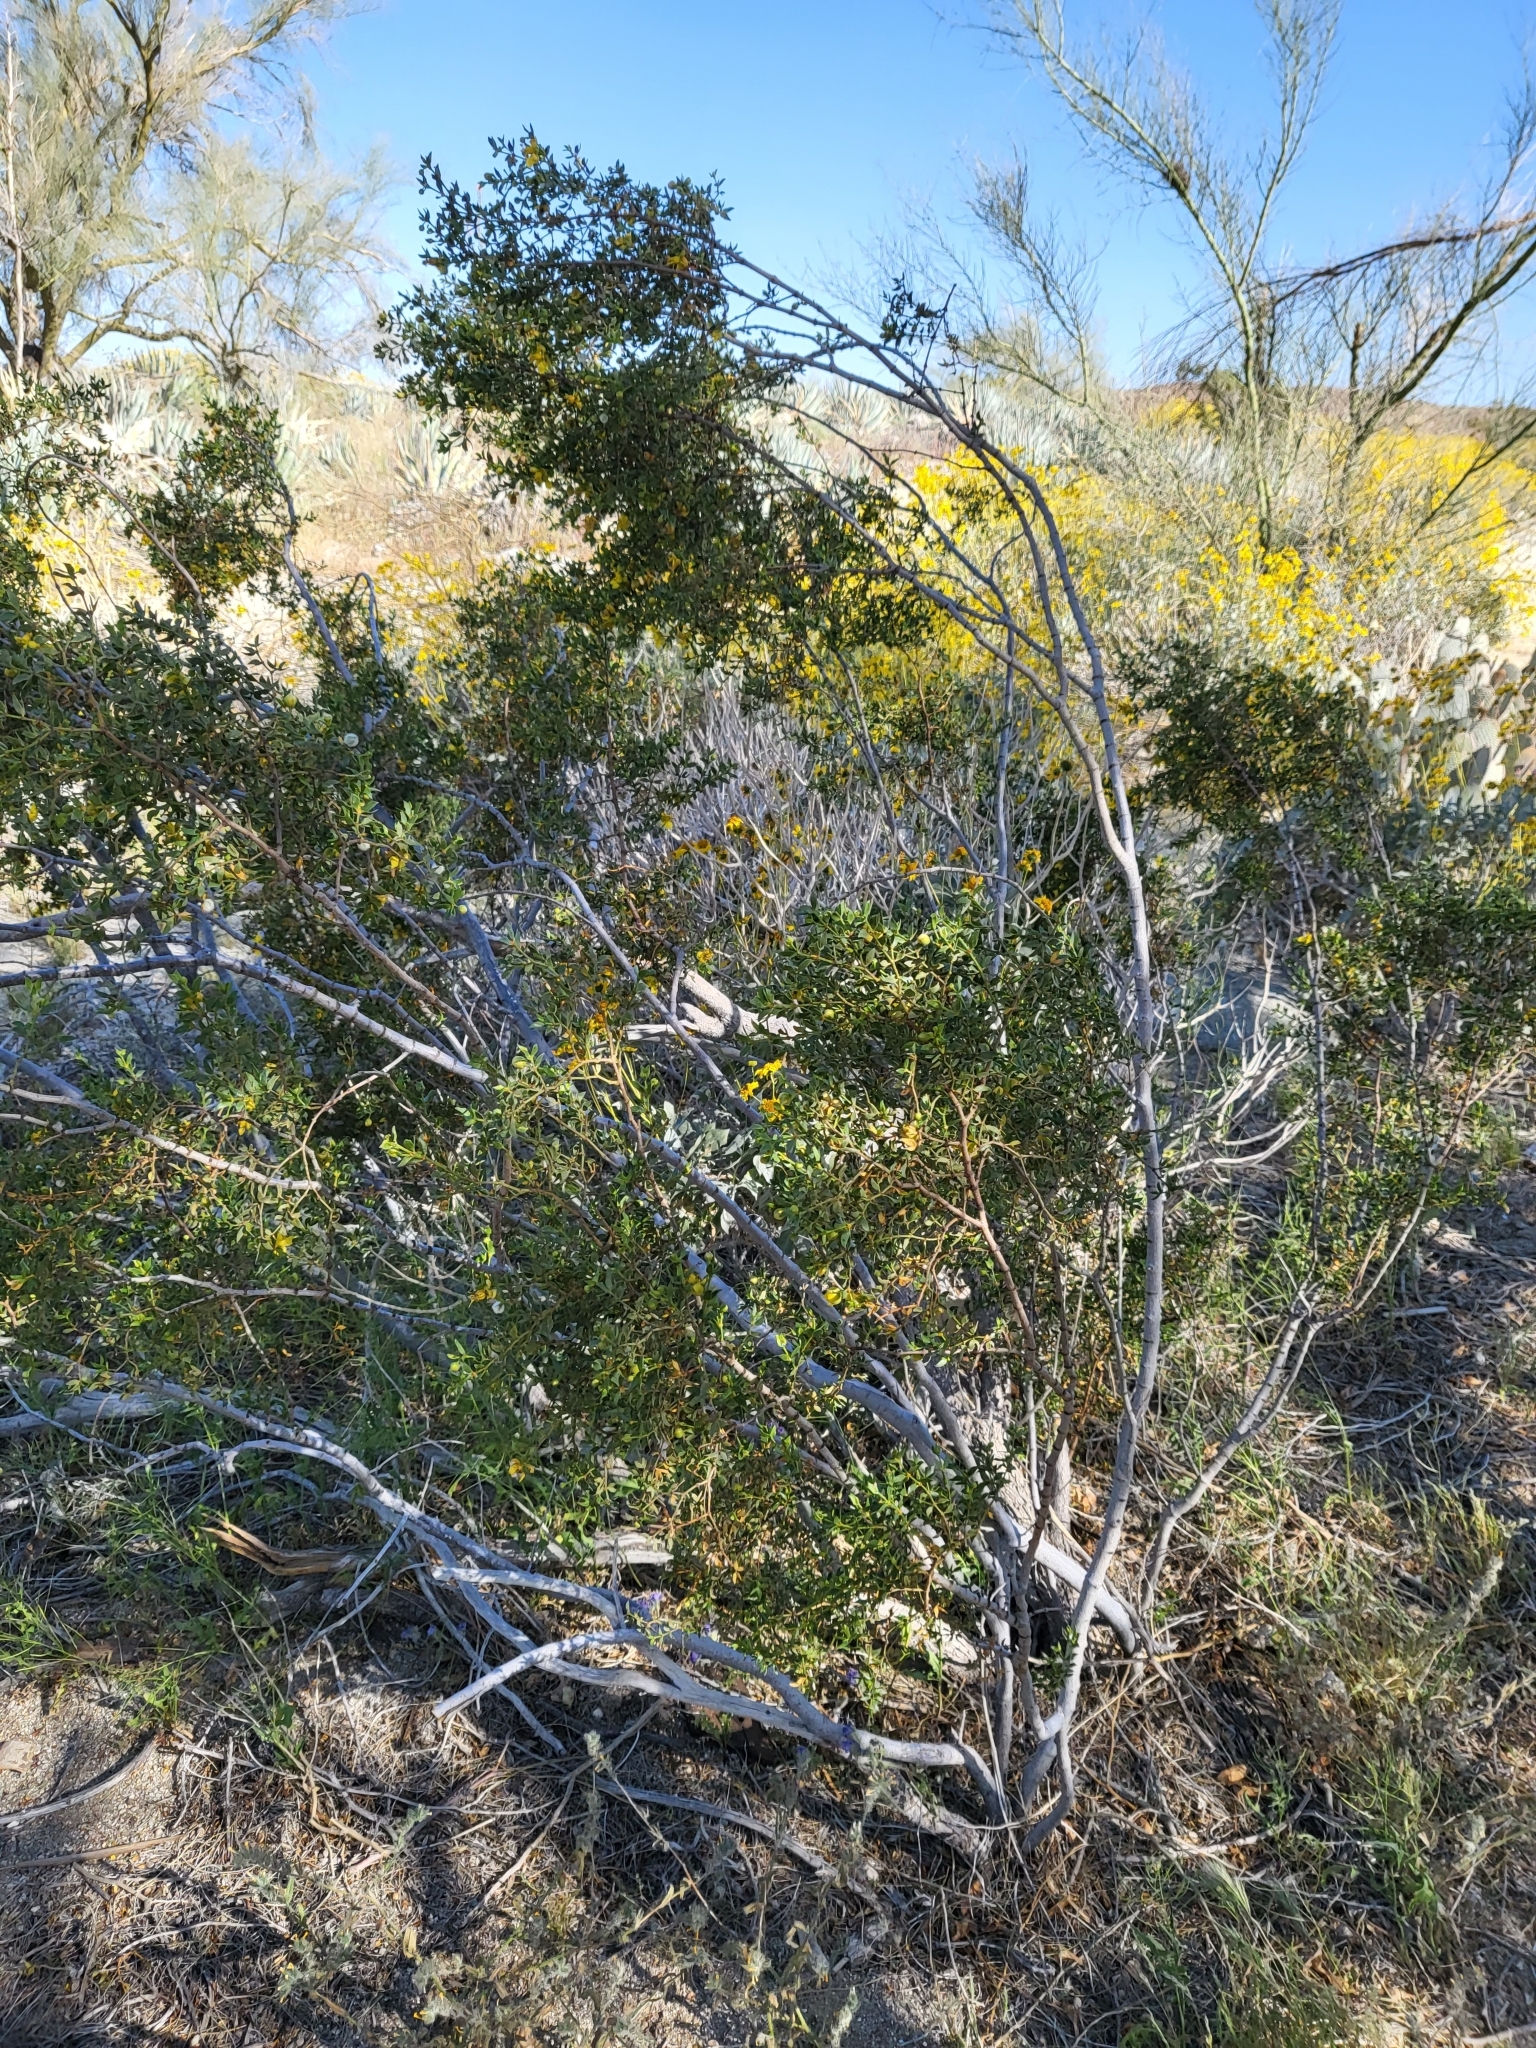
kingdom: Plantae
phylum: Tracheophyta
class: Magnoliopsida
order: Zygophyllales
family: Zygophyllaceae
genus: Larrea
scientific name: Larrea tridentata
